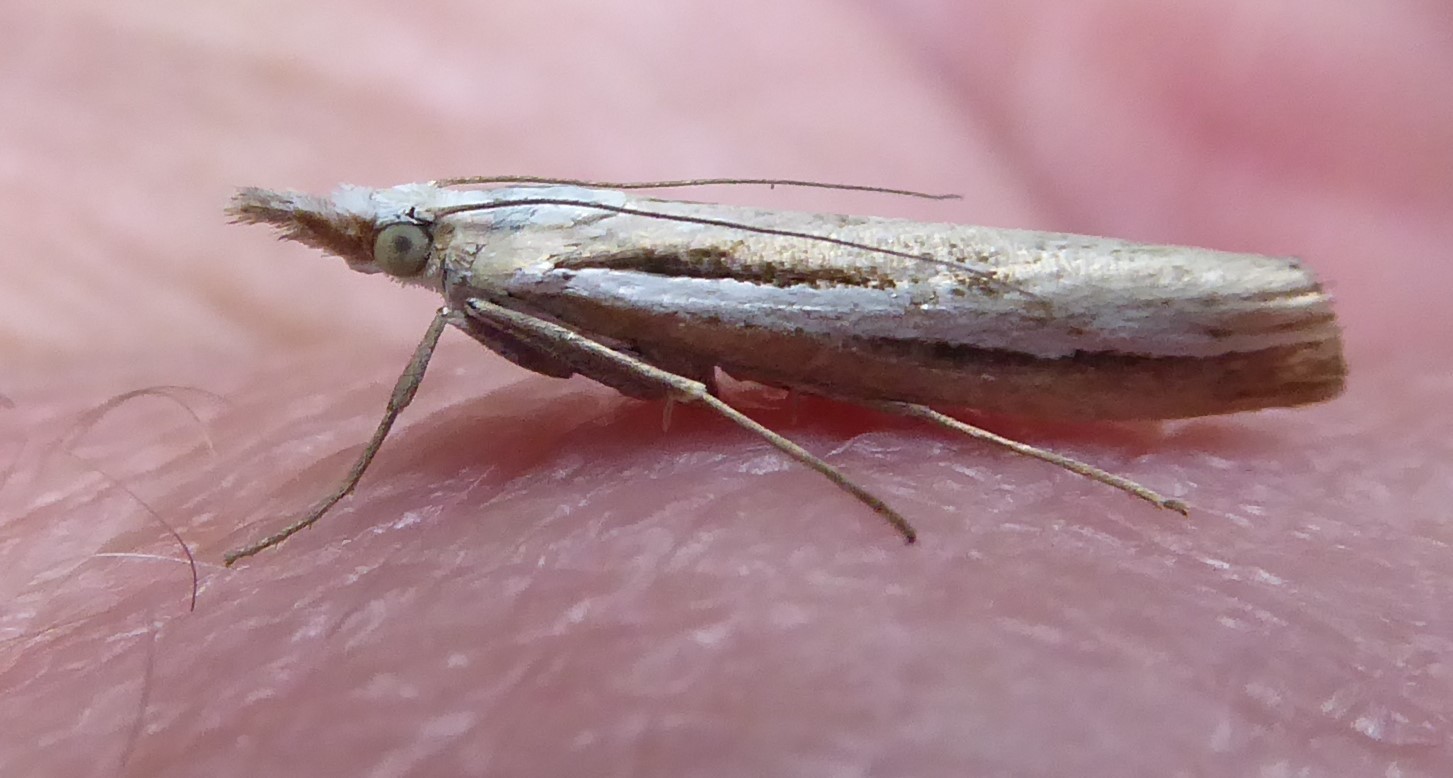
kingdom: Animalia
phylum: Arthropoda
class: Insecta
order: Lepidoptera
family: Crambidae
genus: Orocrambus
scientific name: Orocrambus vittellus
